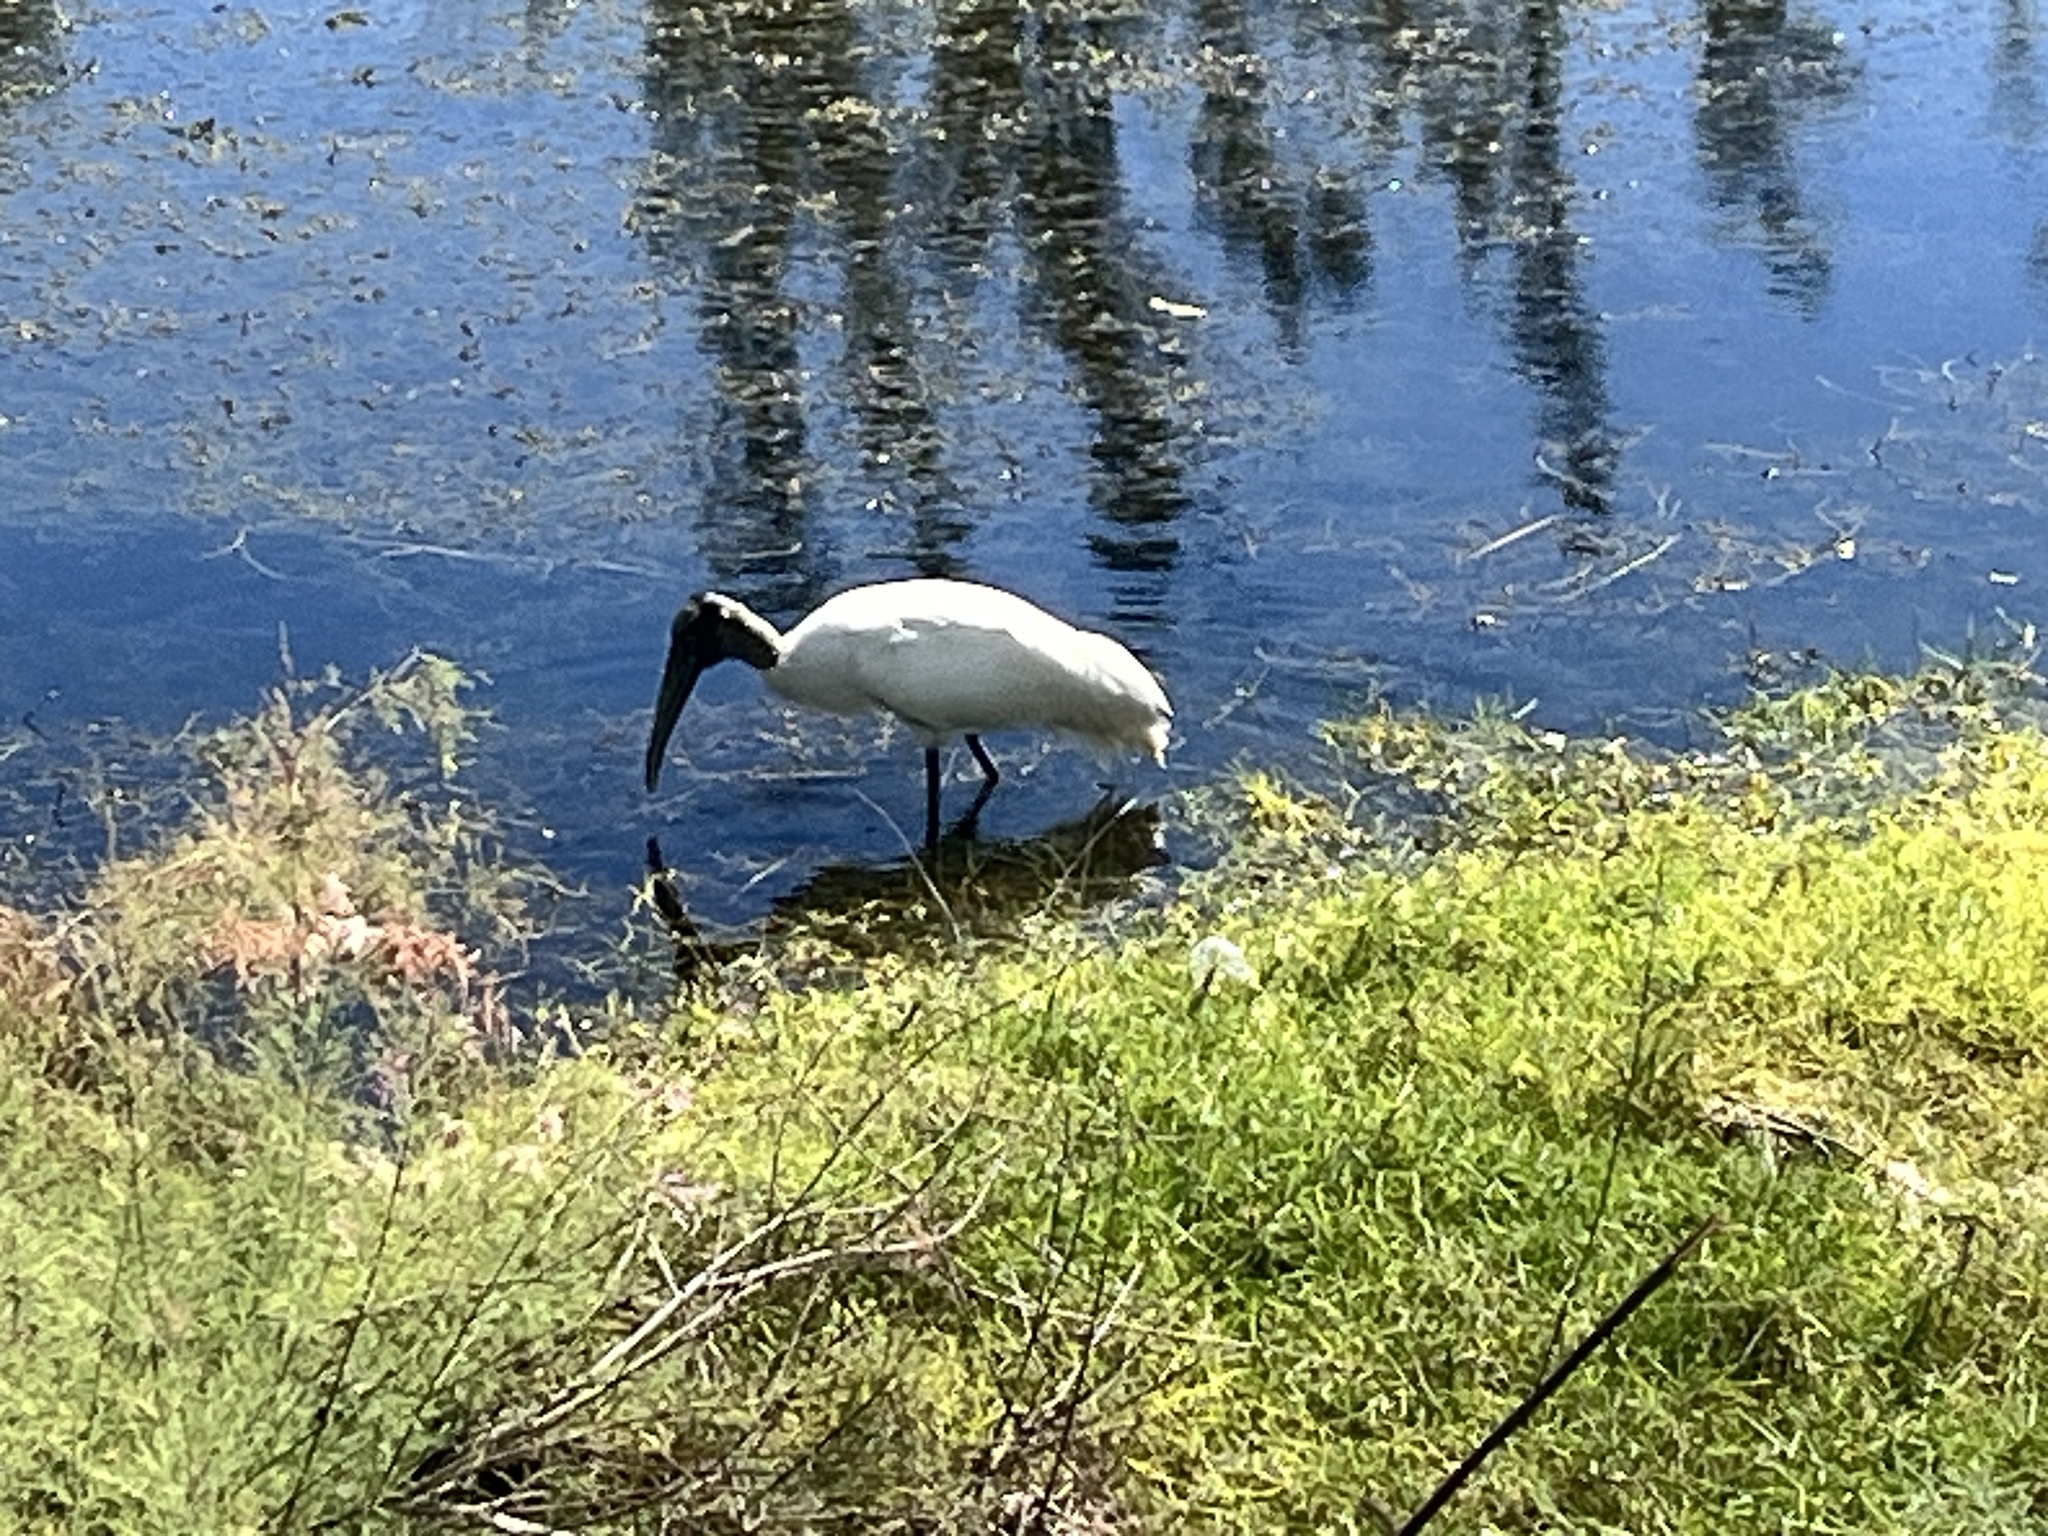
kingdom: Animalia
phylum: Chordata
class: Aves
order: Ciconiiformes
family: Ciconiidae
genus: Mycteria
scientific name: Mycteria americana
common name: Wood stork
